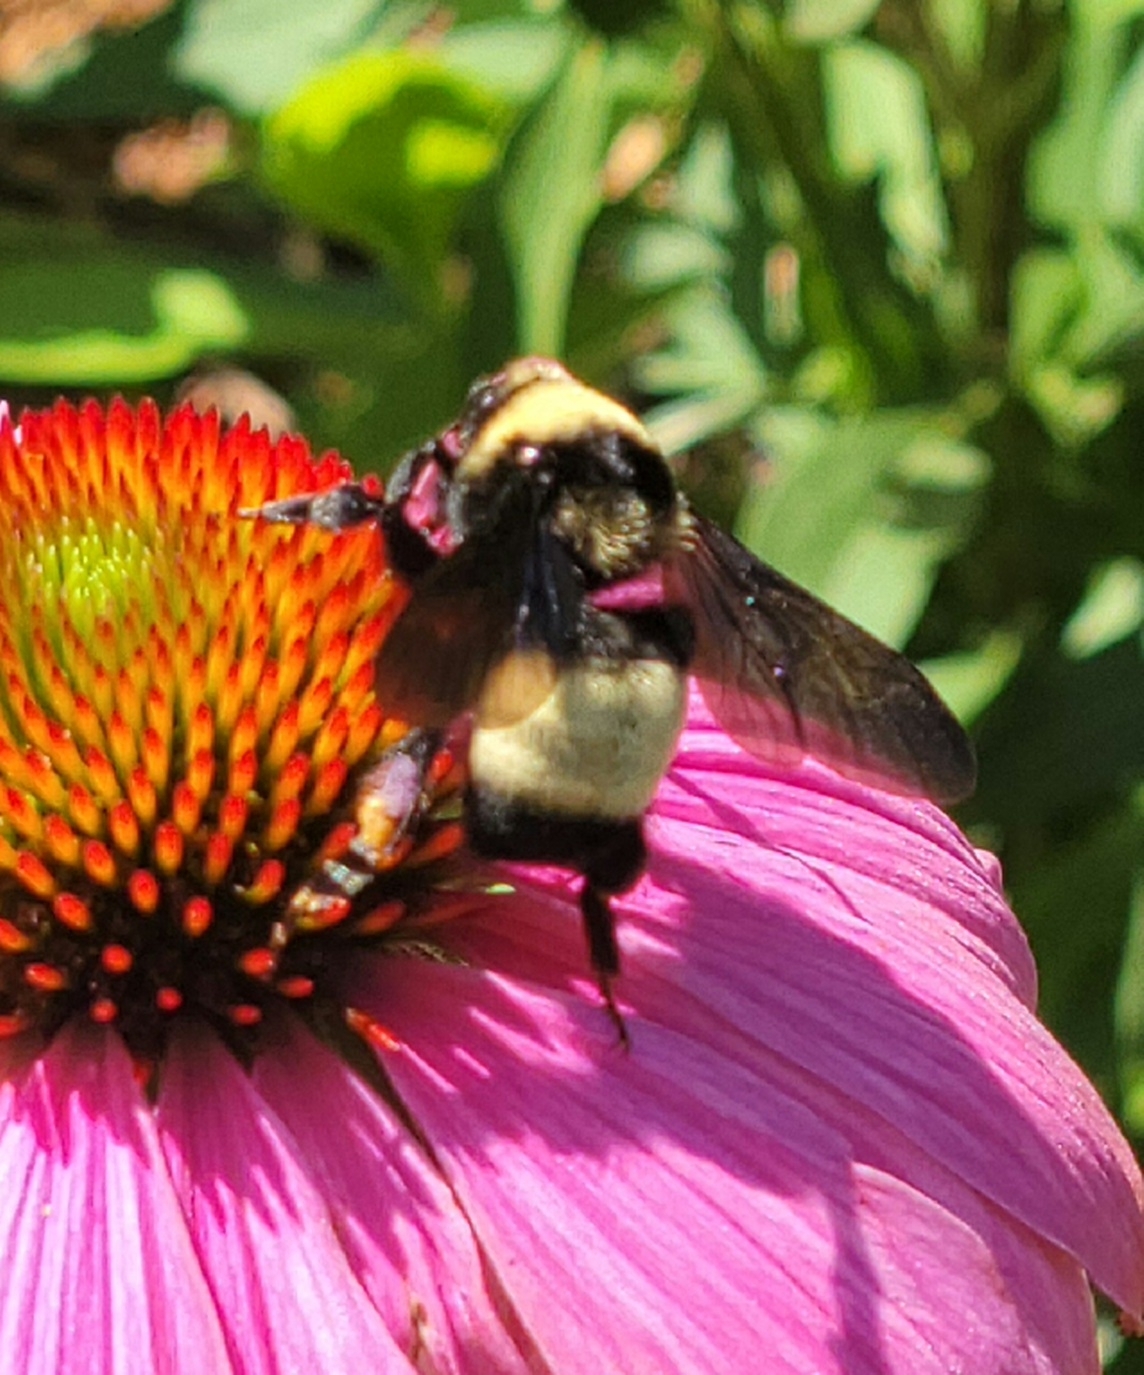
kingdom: Animalia
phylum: Arthropoda
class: Insecta
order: Hymenoptera
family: Apidae
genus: Bombus
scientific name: Bombus auricomus
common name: Black and gold bumble bee
